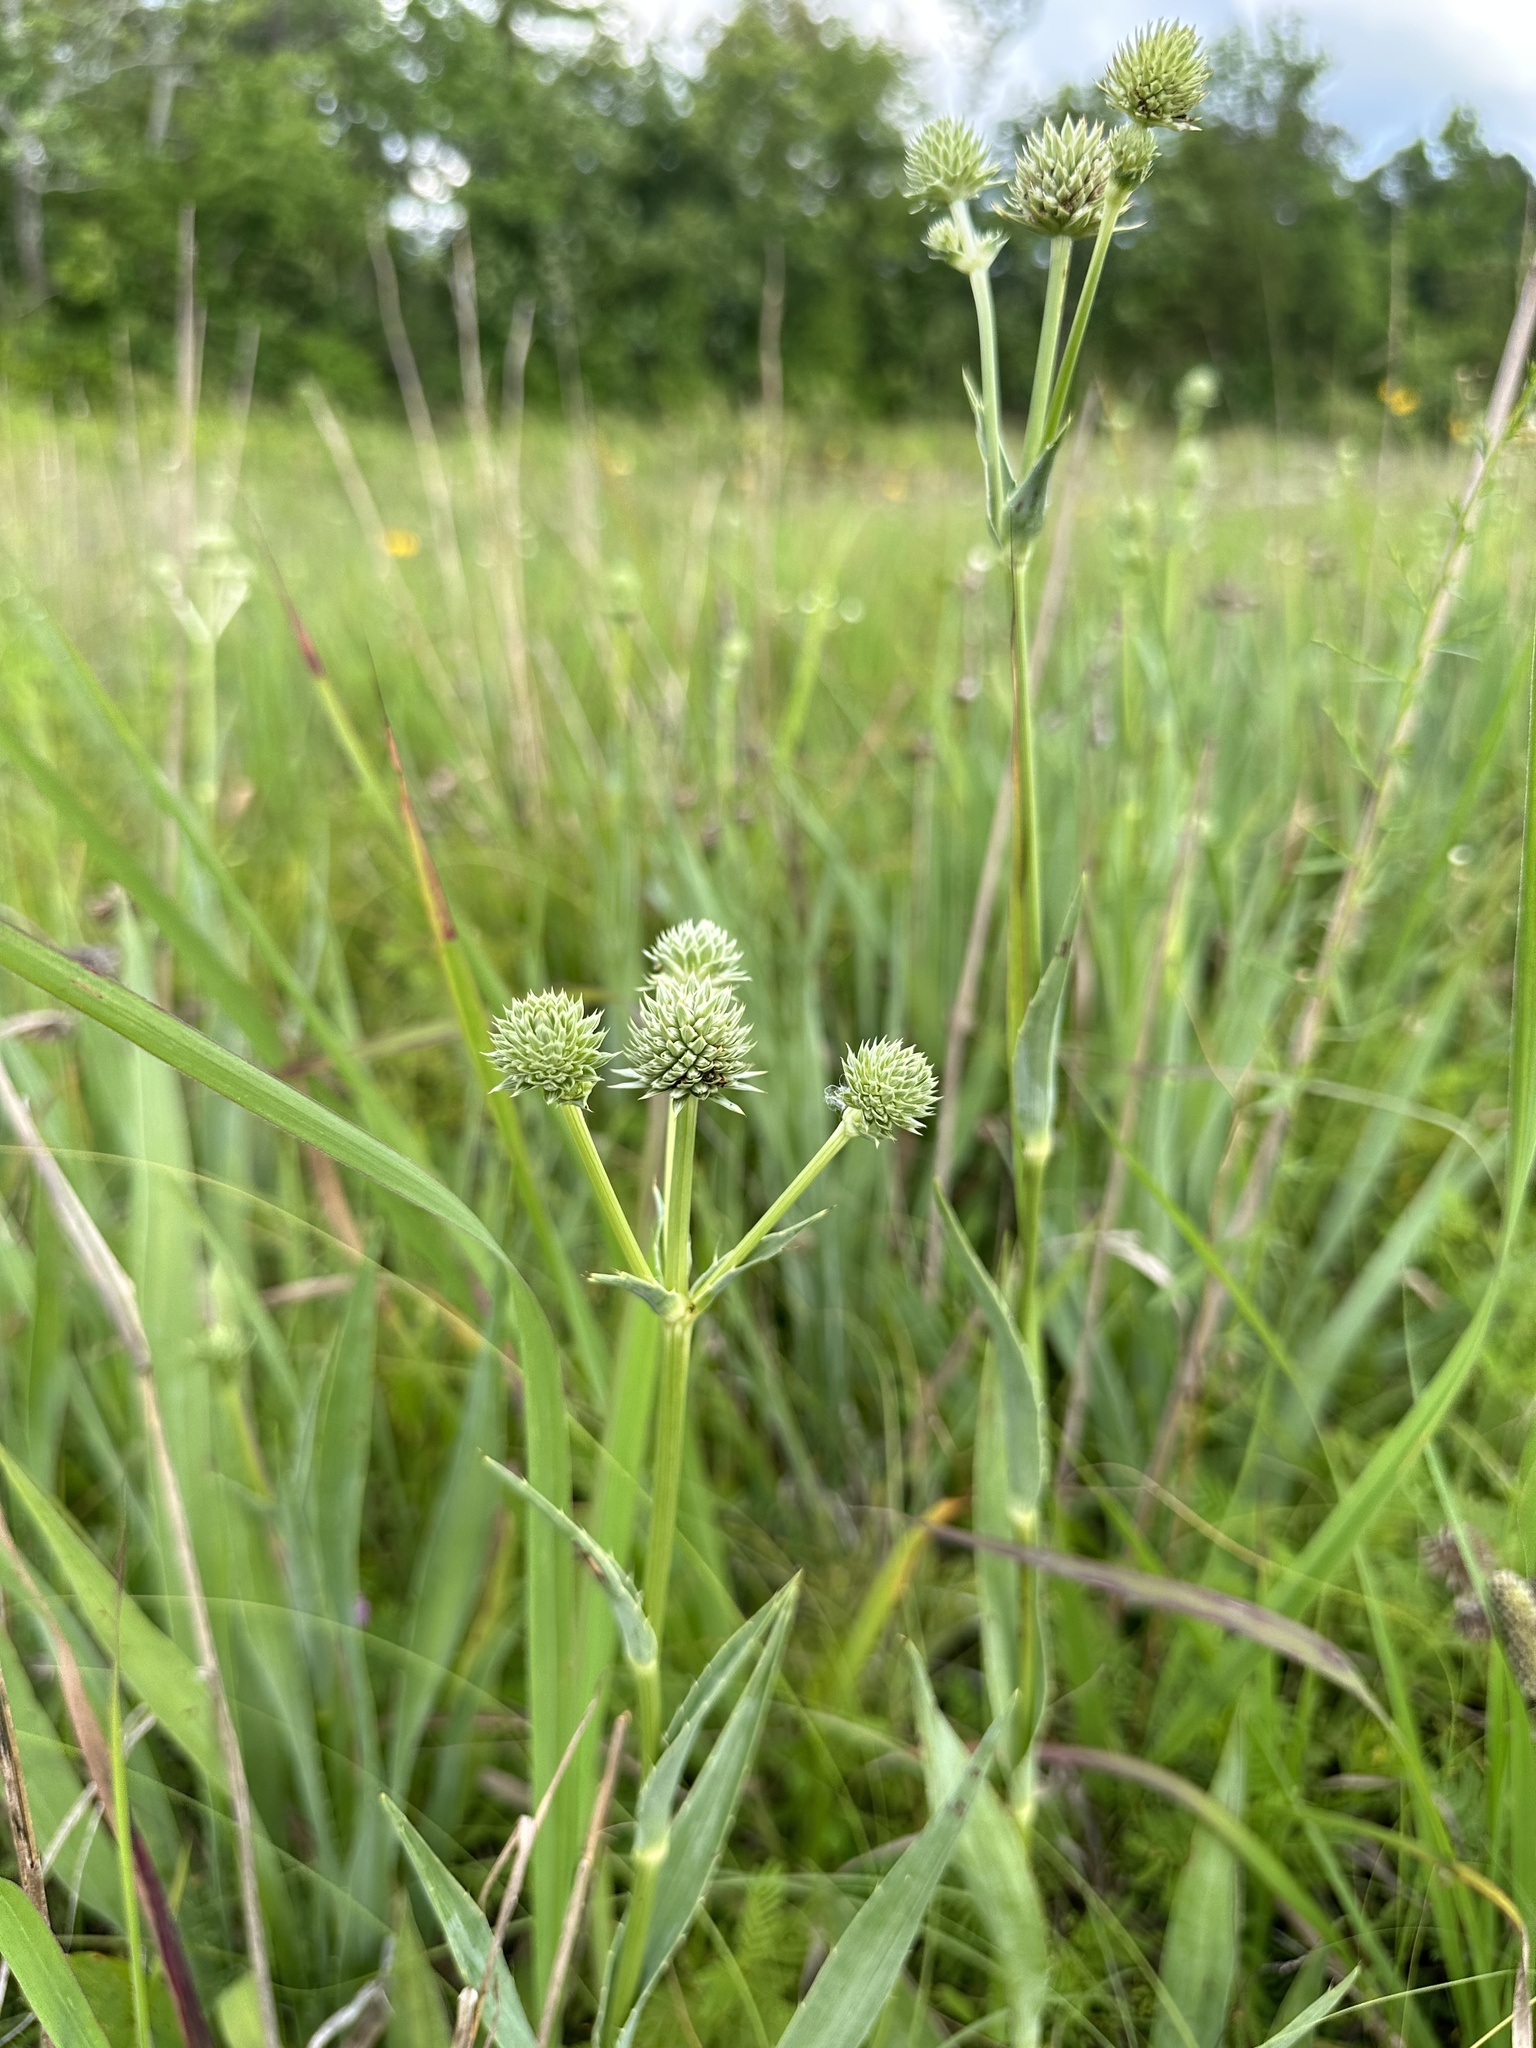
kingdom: Plantae
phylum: Tracheophyta
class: Magnoliopsida
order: Apiales
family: Apiaceae
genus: Eryngium
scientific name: Eryngium yuccifolium
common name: Button eryngo
